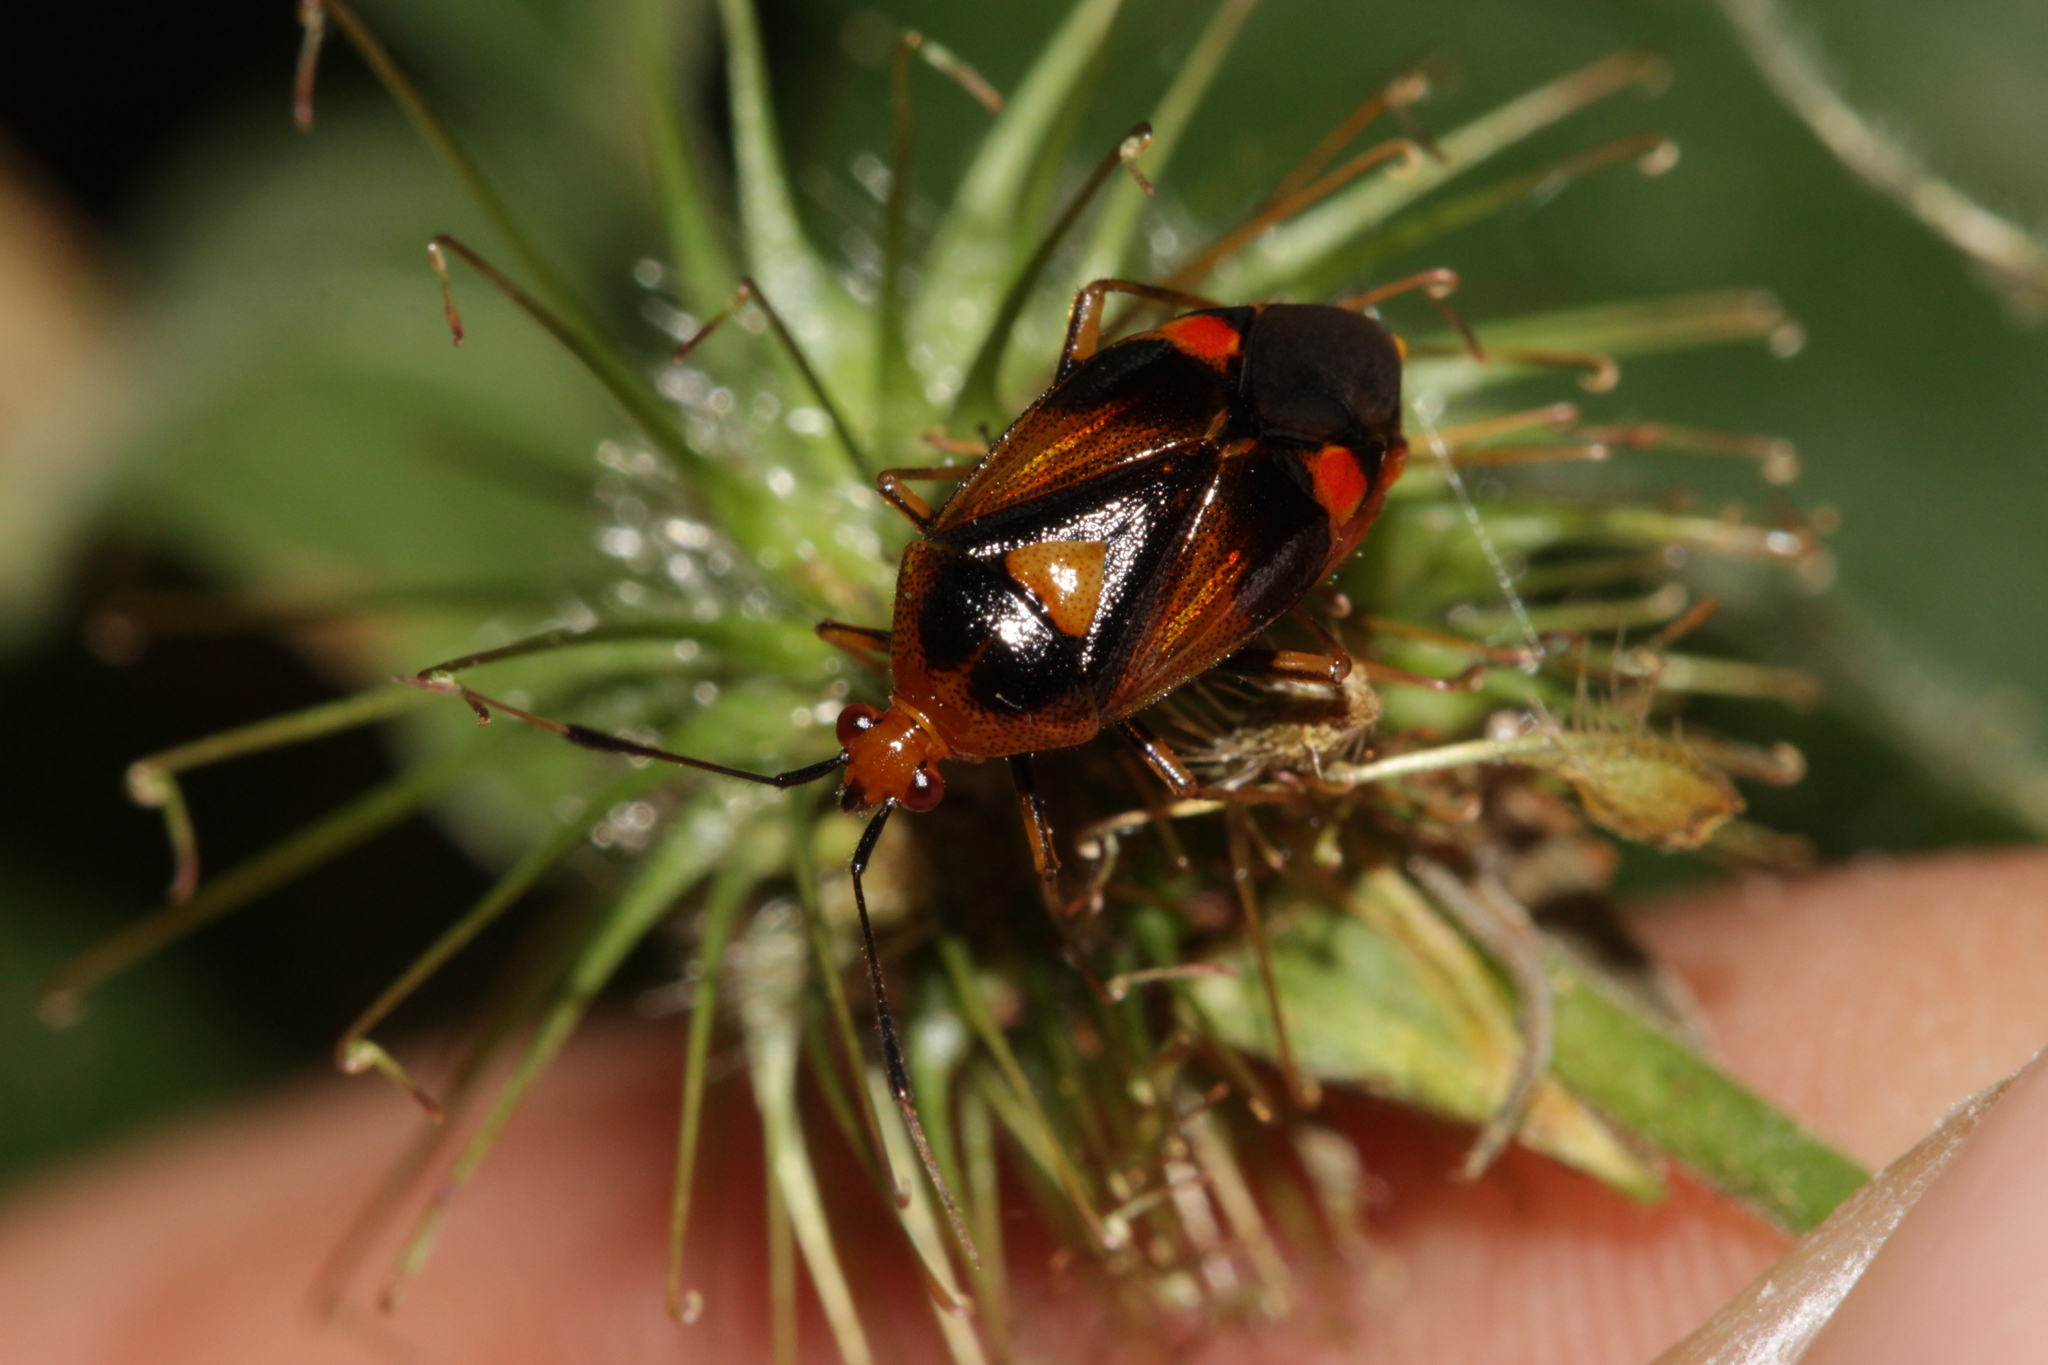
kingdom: Animalia
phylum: Arthropoda
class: Insecta
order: Hemiptera
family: Miridae
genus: Deraeocoris
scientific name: Deraeocoris ruber
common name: Plant bug
